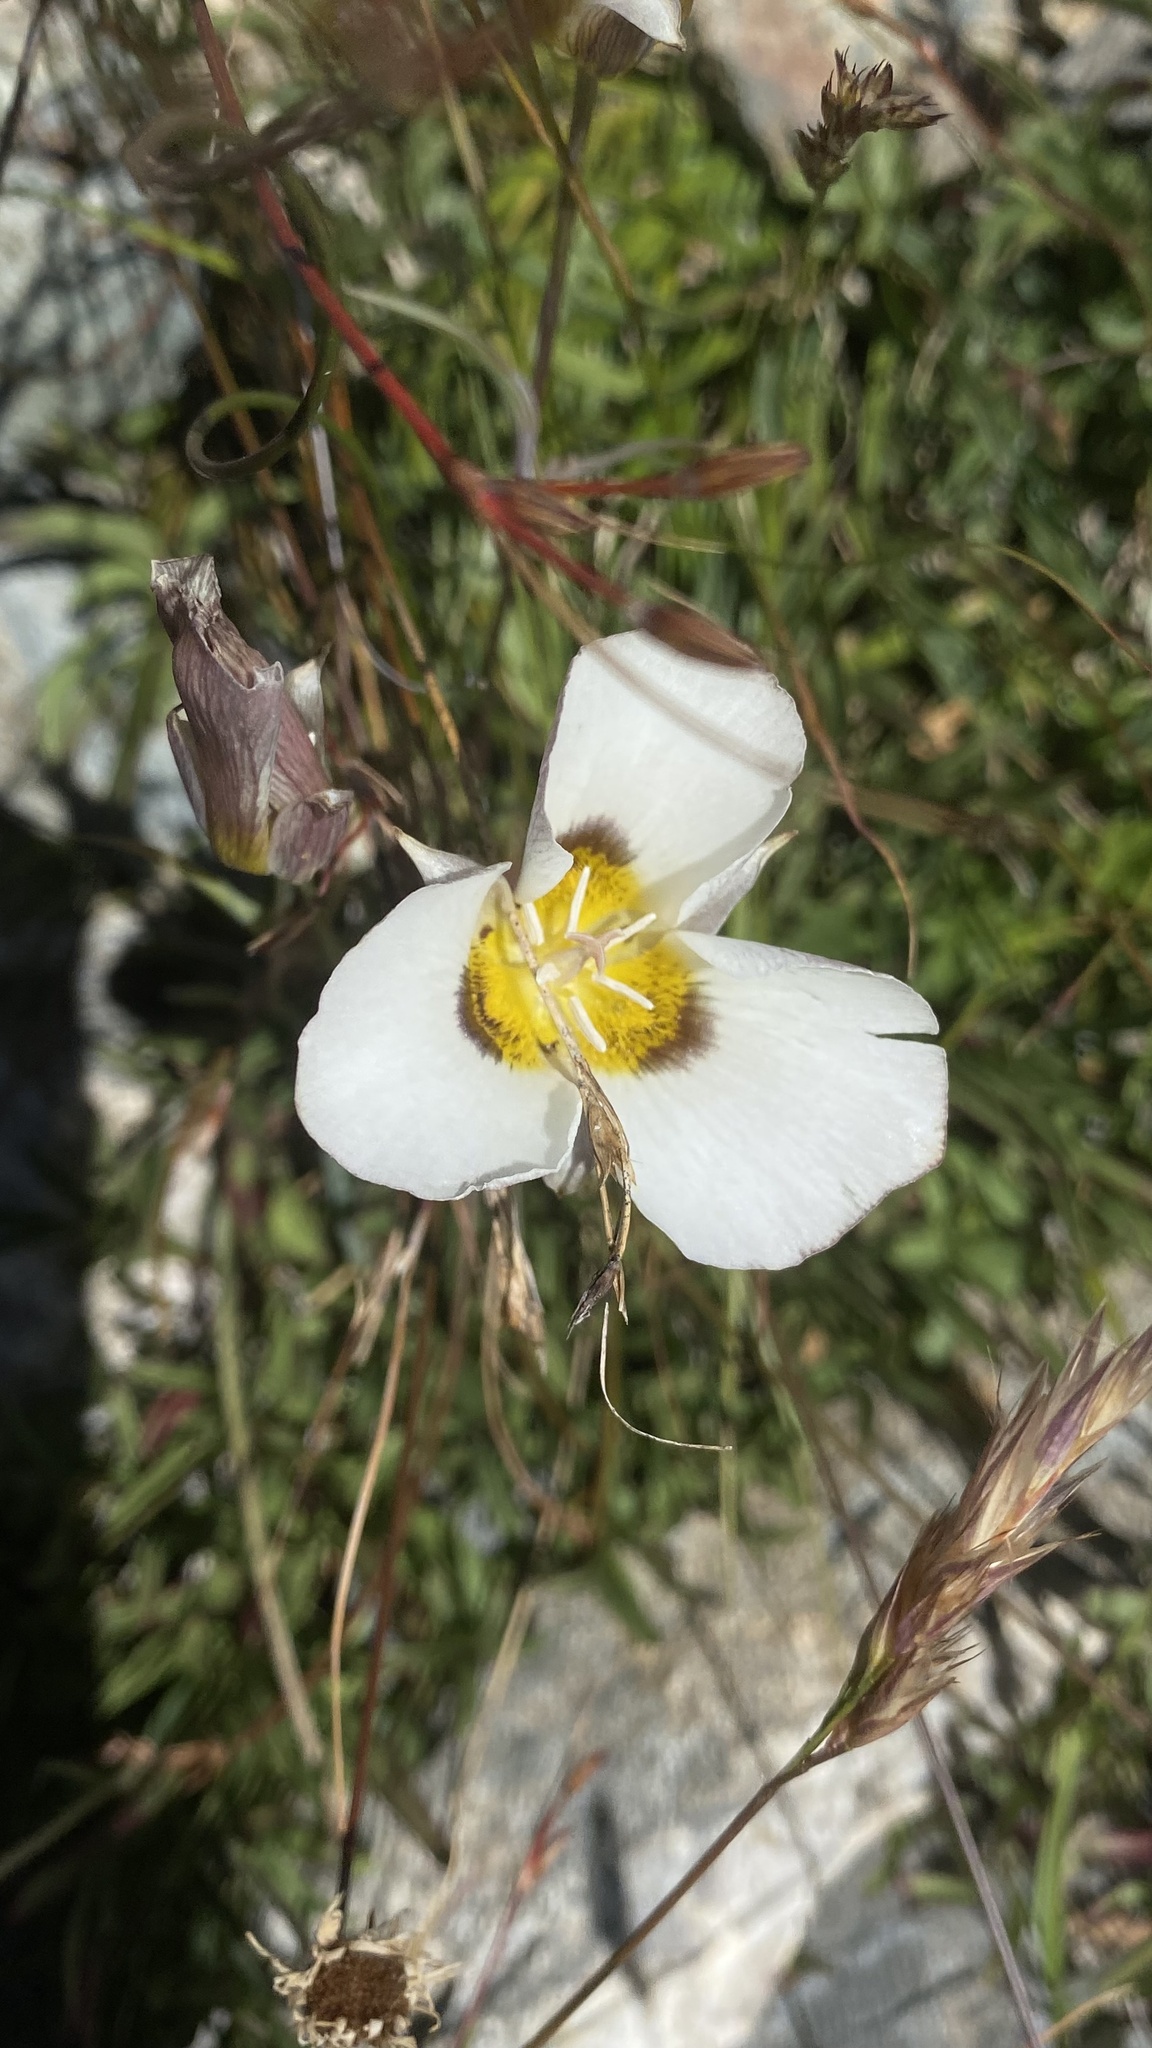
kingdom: Plantae
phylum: Tracheophyta
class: Liliopsida
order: Liliales
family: Liliaceae
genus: Calochortus
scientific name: Calochortus leichtlinii
